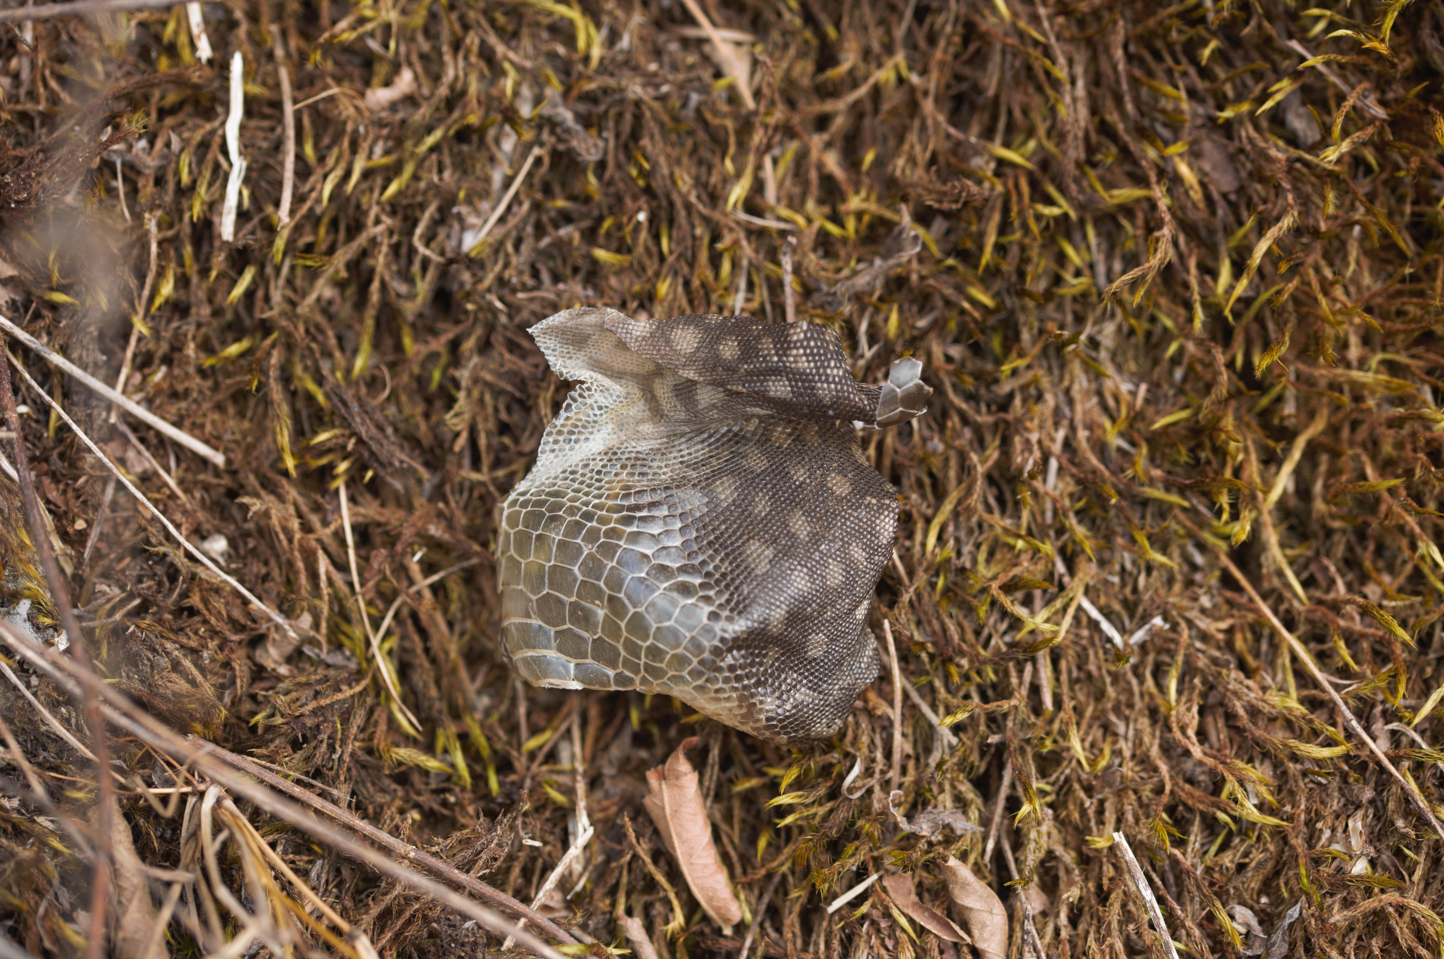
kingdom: Animalia
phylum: Chordata
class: Squamata
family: Tropiduridae
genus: Tropidurus
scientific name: Tropidurus hispidus
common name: Peters' lava lizard
